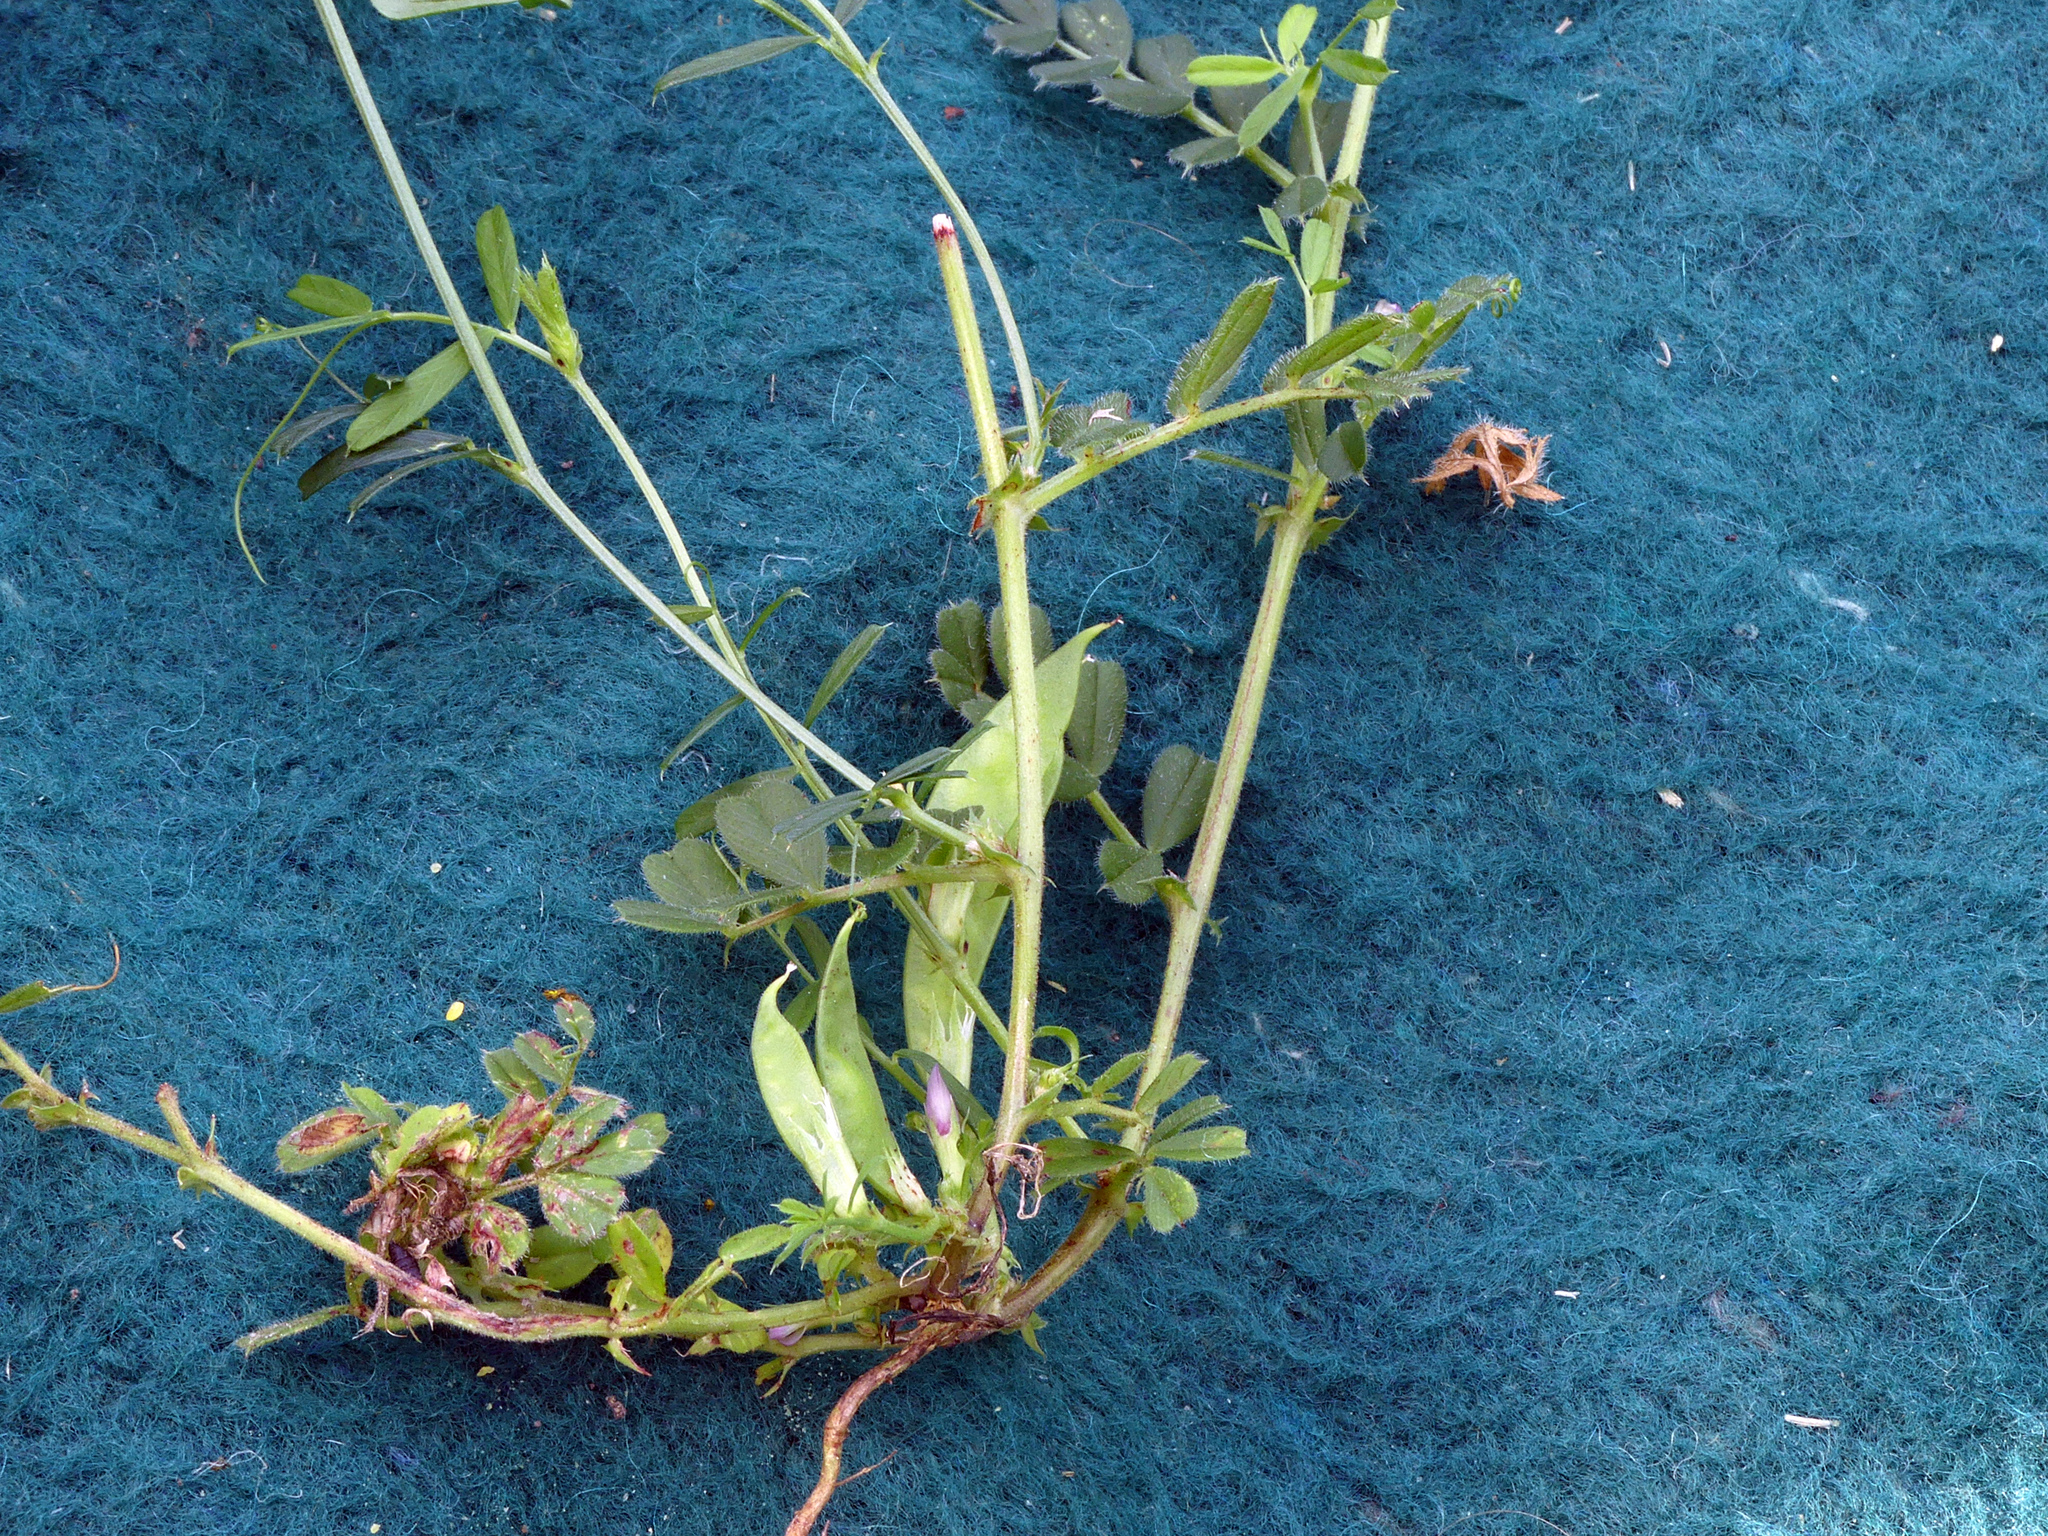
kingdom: Plantae
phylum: Tracheophyta
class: Magnoliopsida
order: Fabales
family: Fabaceae
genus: Vicia
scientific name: Vicia sativa
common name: Garden vetch
